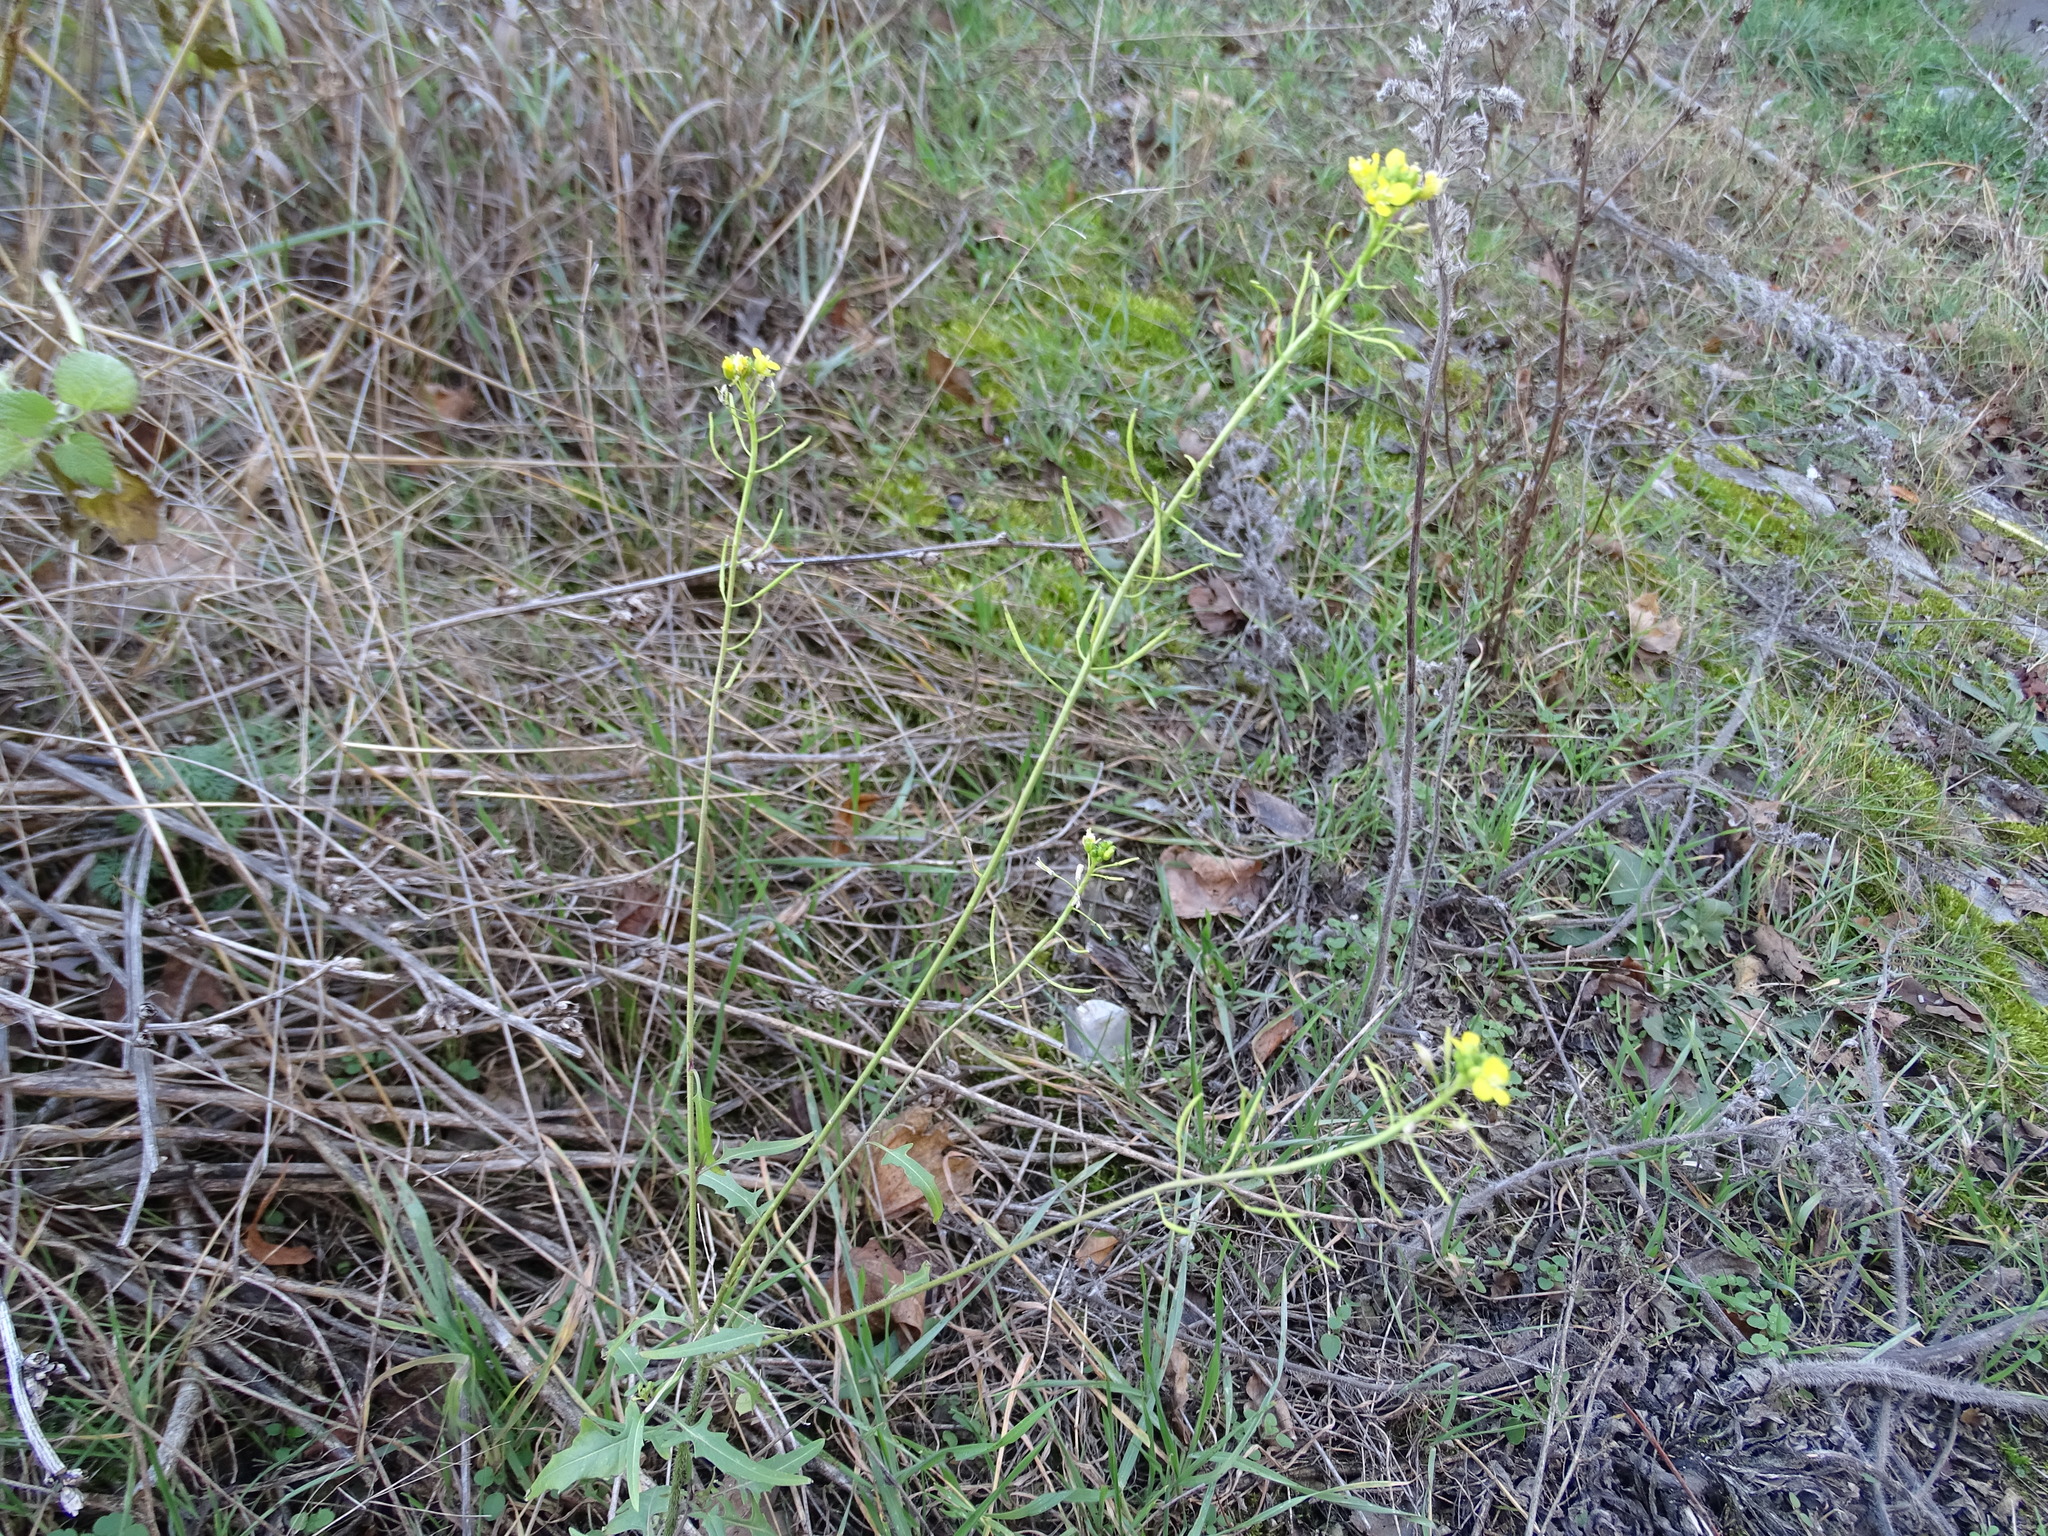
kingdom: Plantae
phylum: Tracheophyta
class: Magnoliopsida
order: Brassicales
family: Brassicaceae
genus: Sisymbrium
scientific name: Sisymbrium loeselii
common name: False london-rocket
